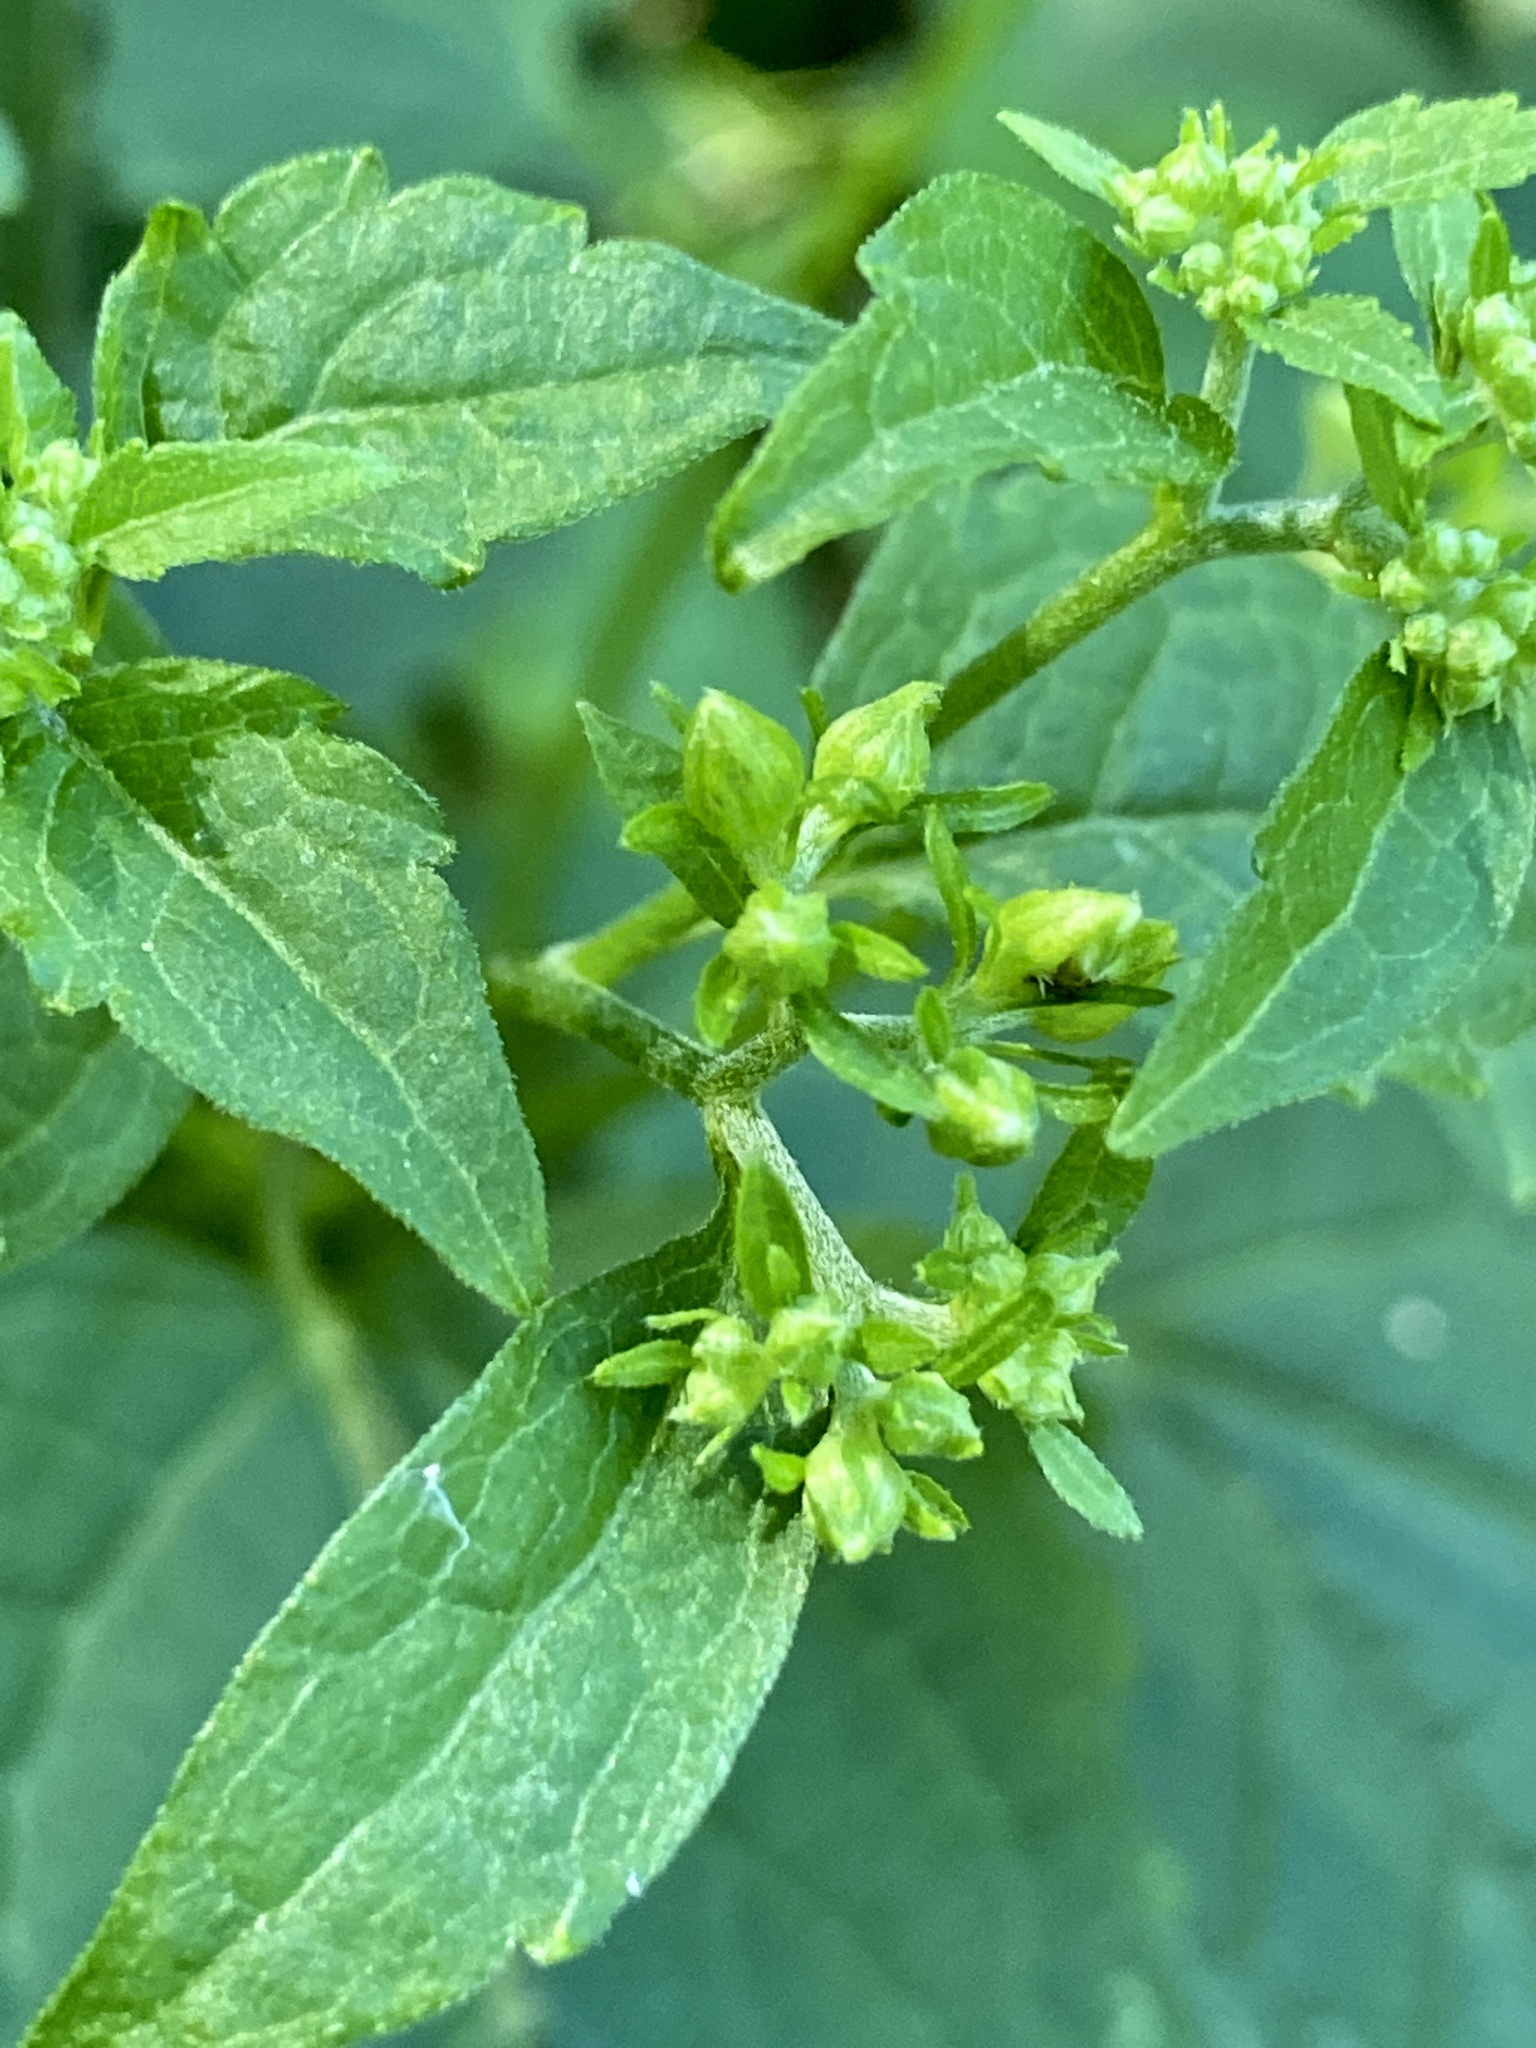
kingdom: Plantae
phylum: Tracheophyta
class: Magnoliopsida
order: Asterales
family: Asteraceae
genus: Ageratina
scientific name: Ageratina altissima
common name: White snakeroot
